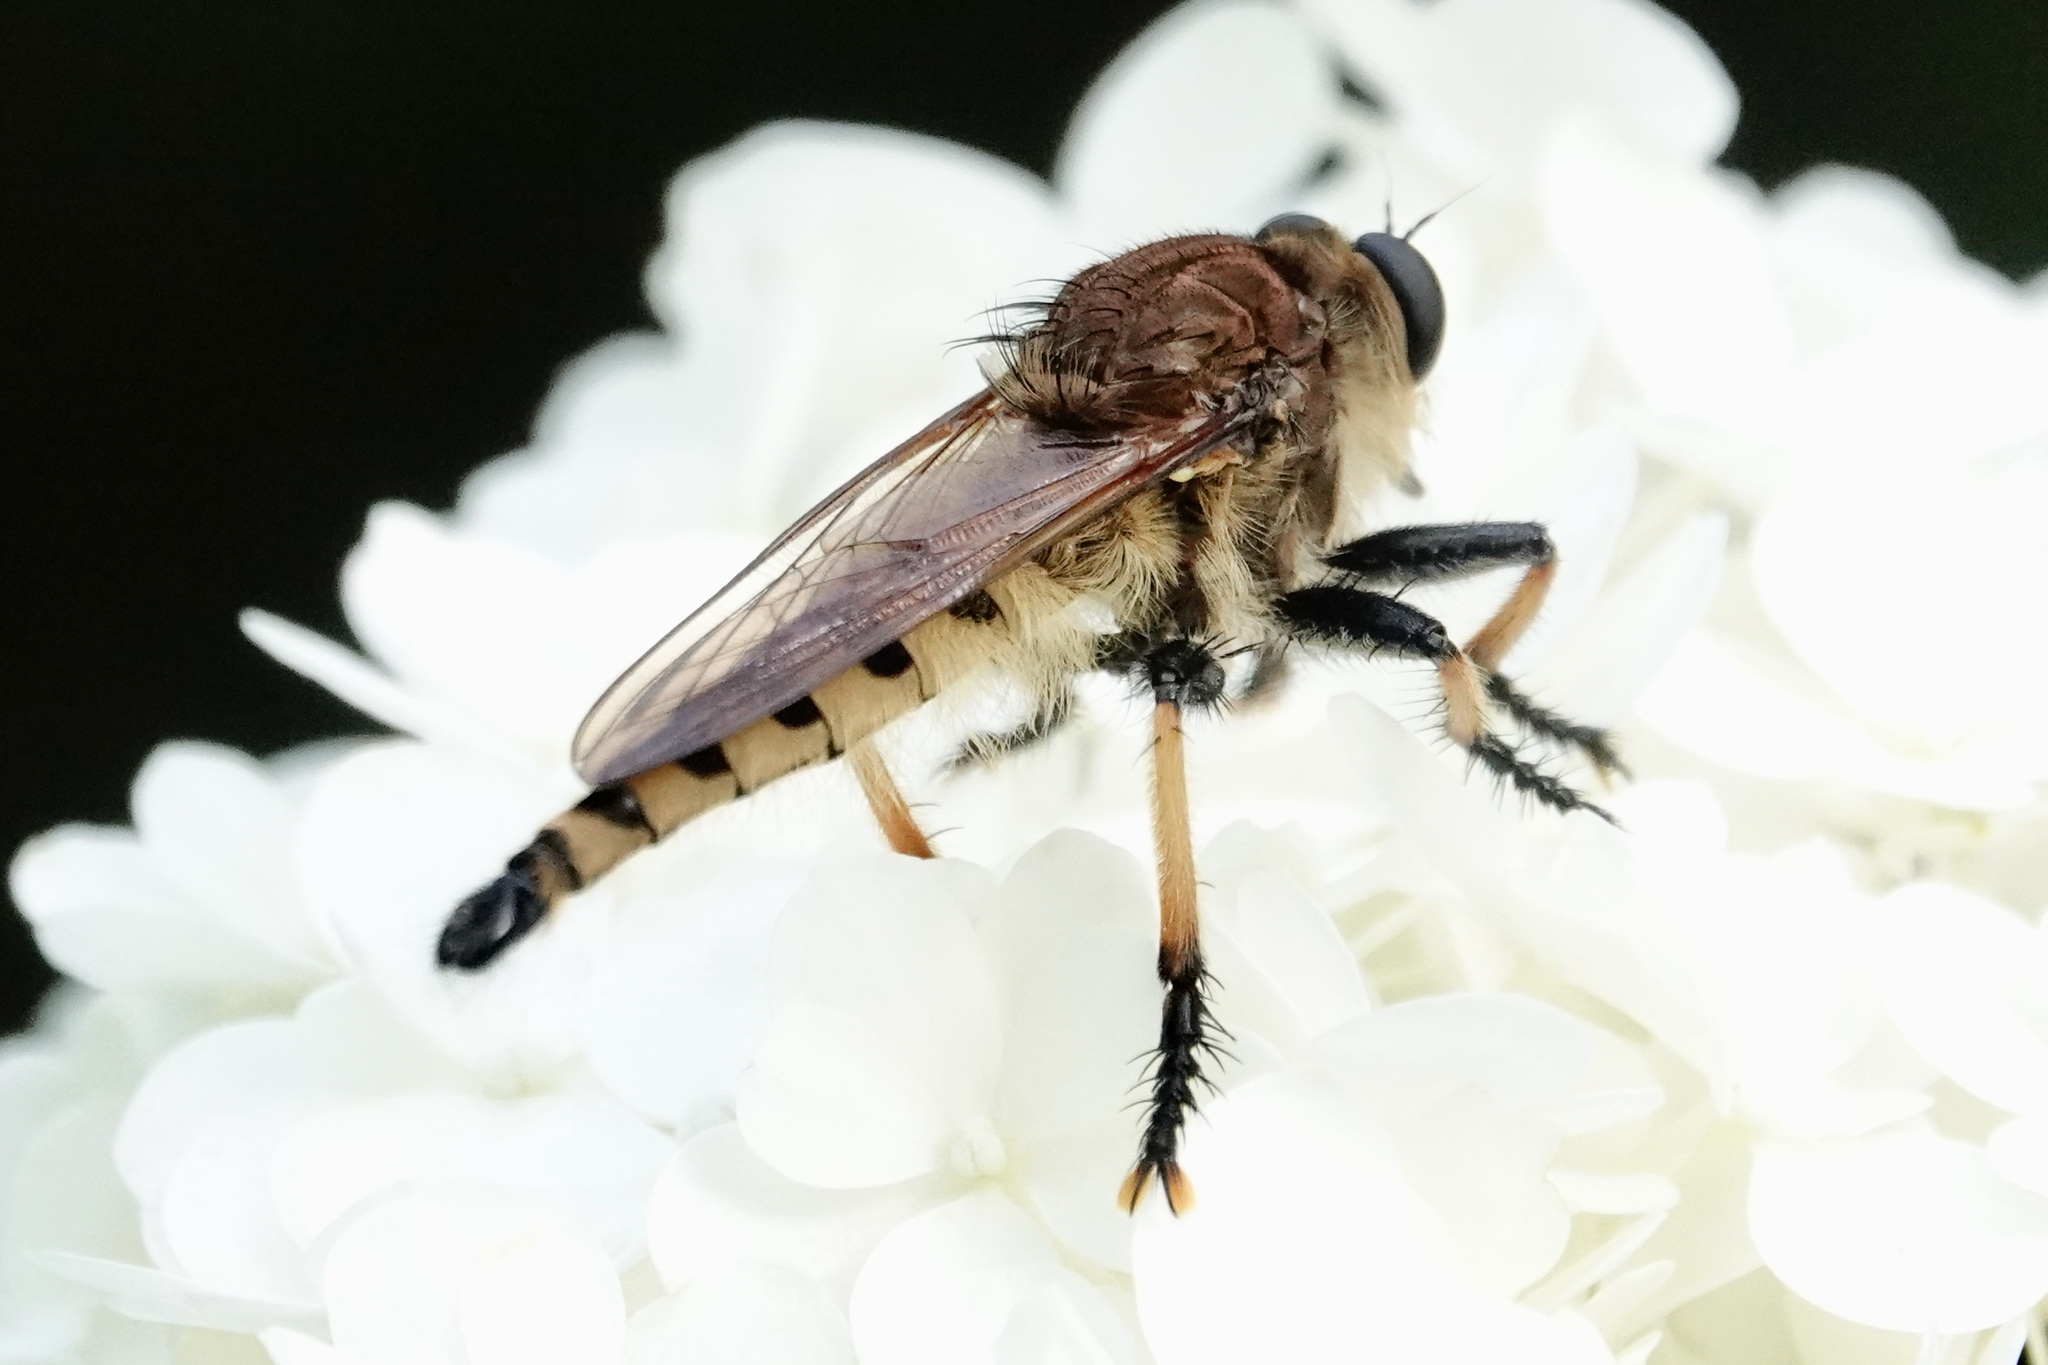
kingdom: Animalia
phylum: Arthropoda
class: Insecta
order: Diptera
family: Asilidae
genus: Promachus
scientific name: Promachus rufipes
